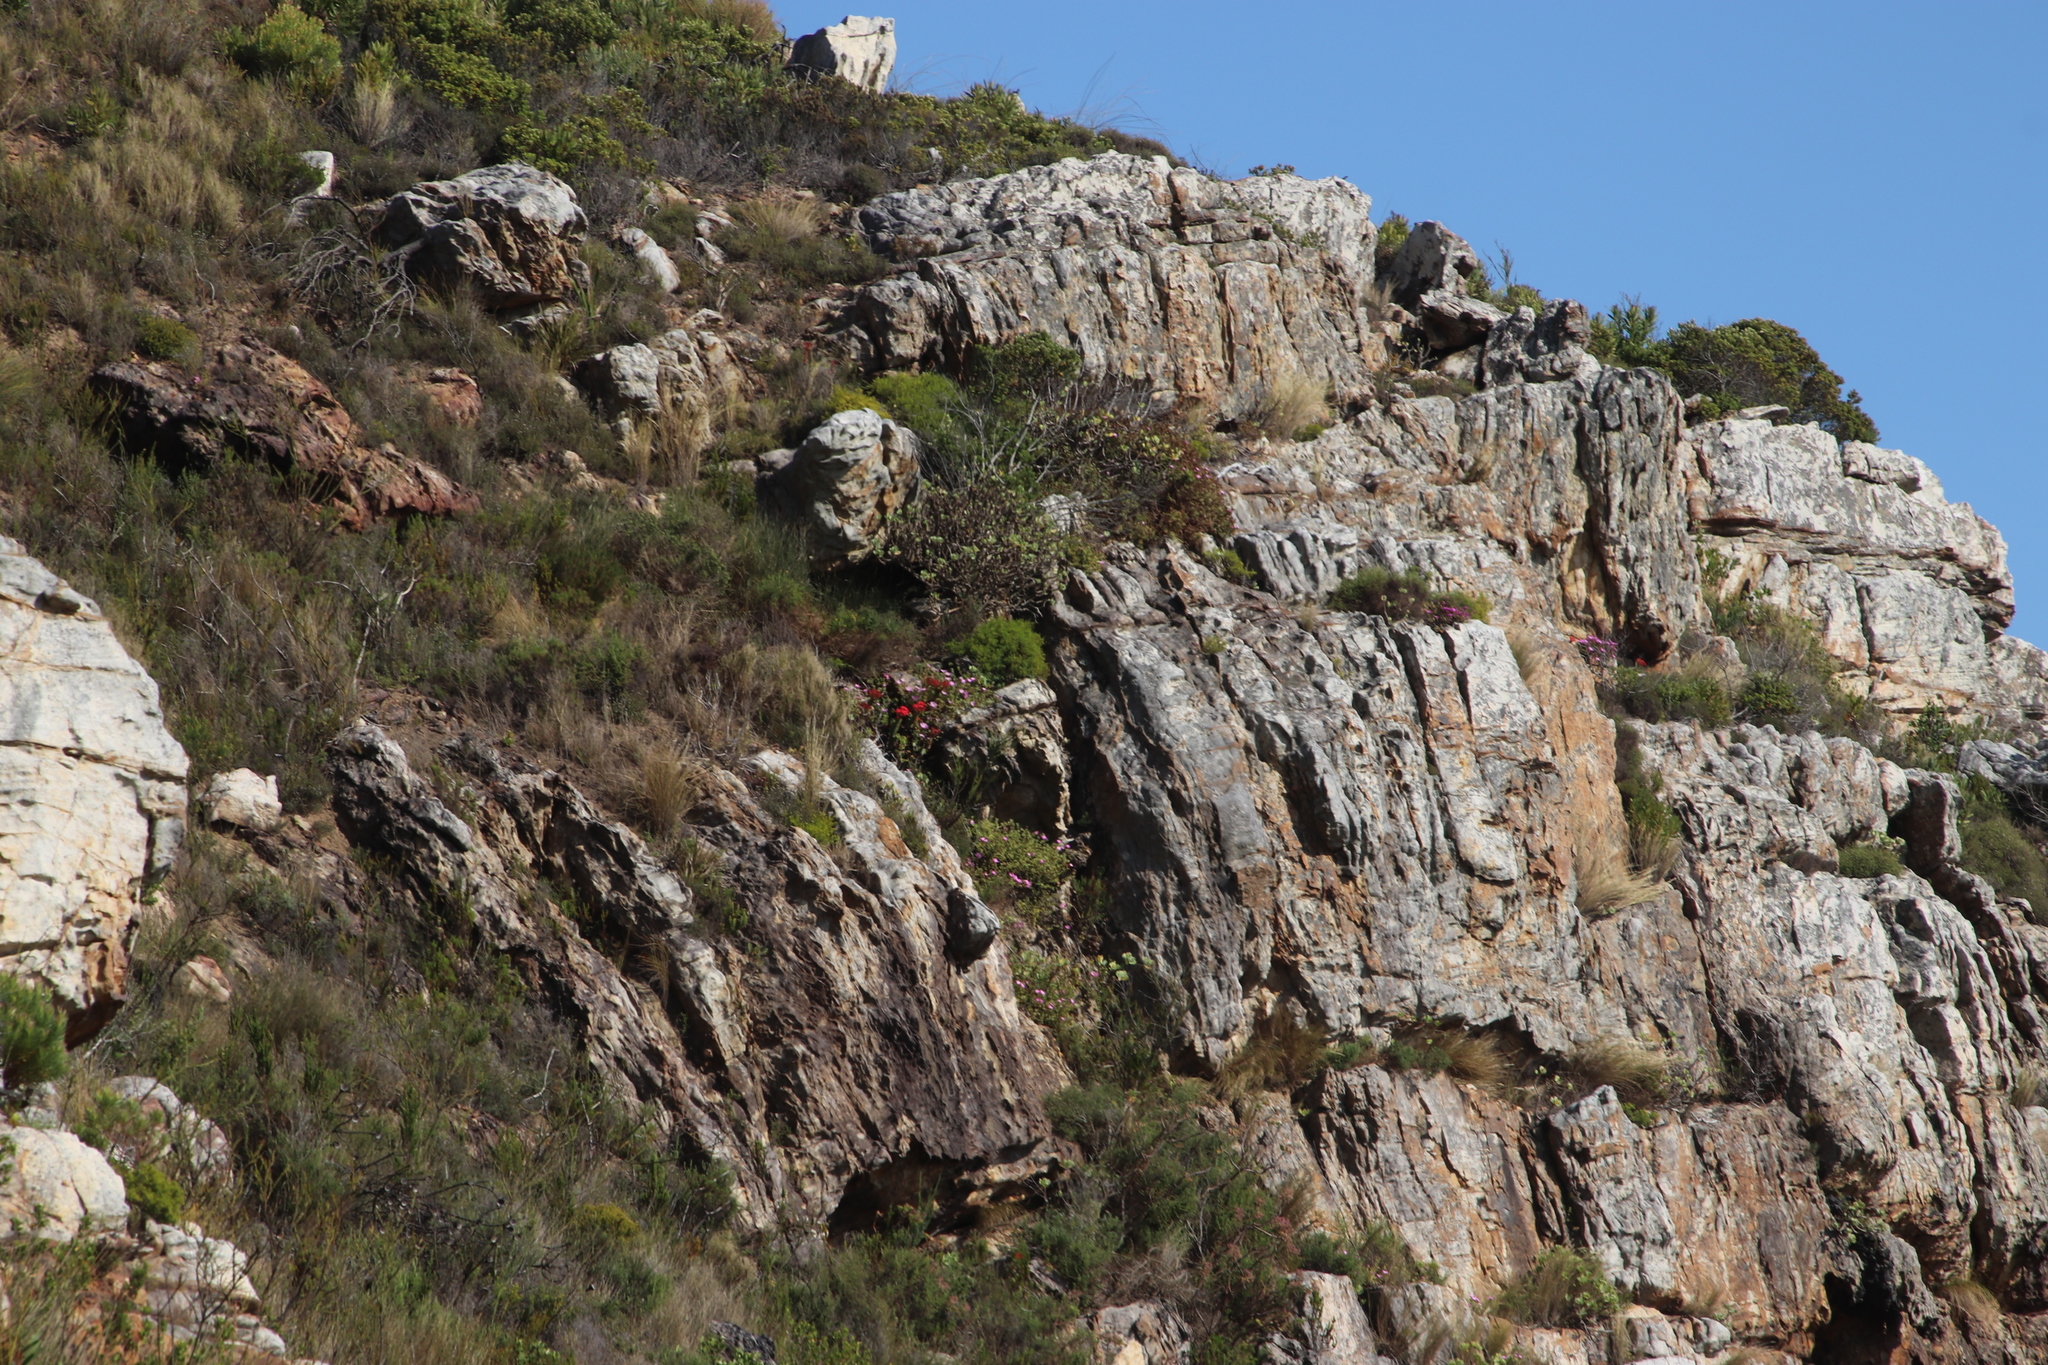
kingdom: Plantae
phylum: Tracheophyta
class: Magnoliopsida
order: Saxifragales
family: Crassulaceae
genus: Crassula
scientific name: Crassula coccinea
